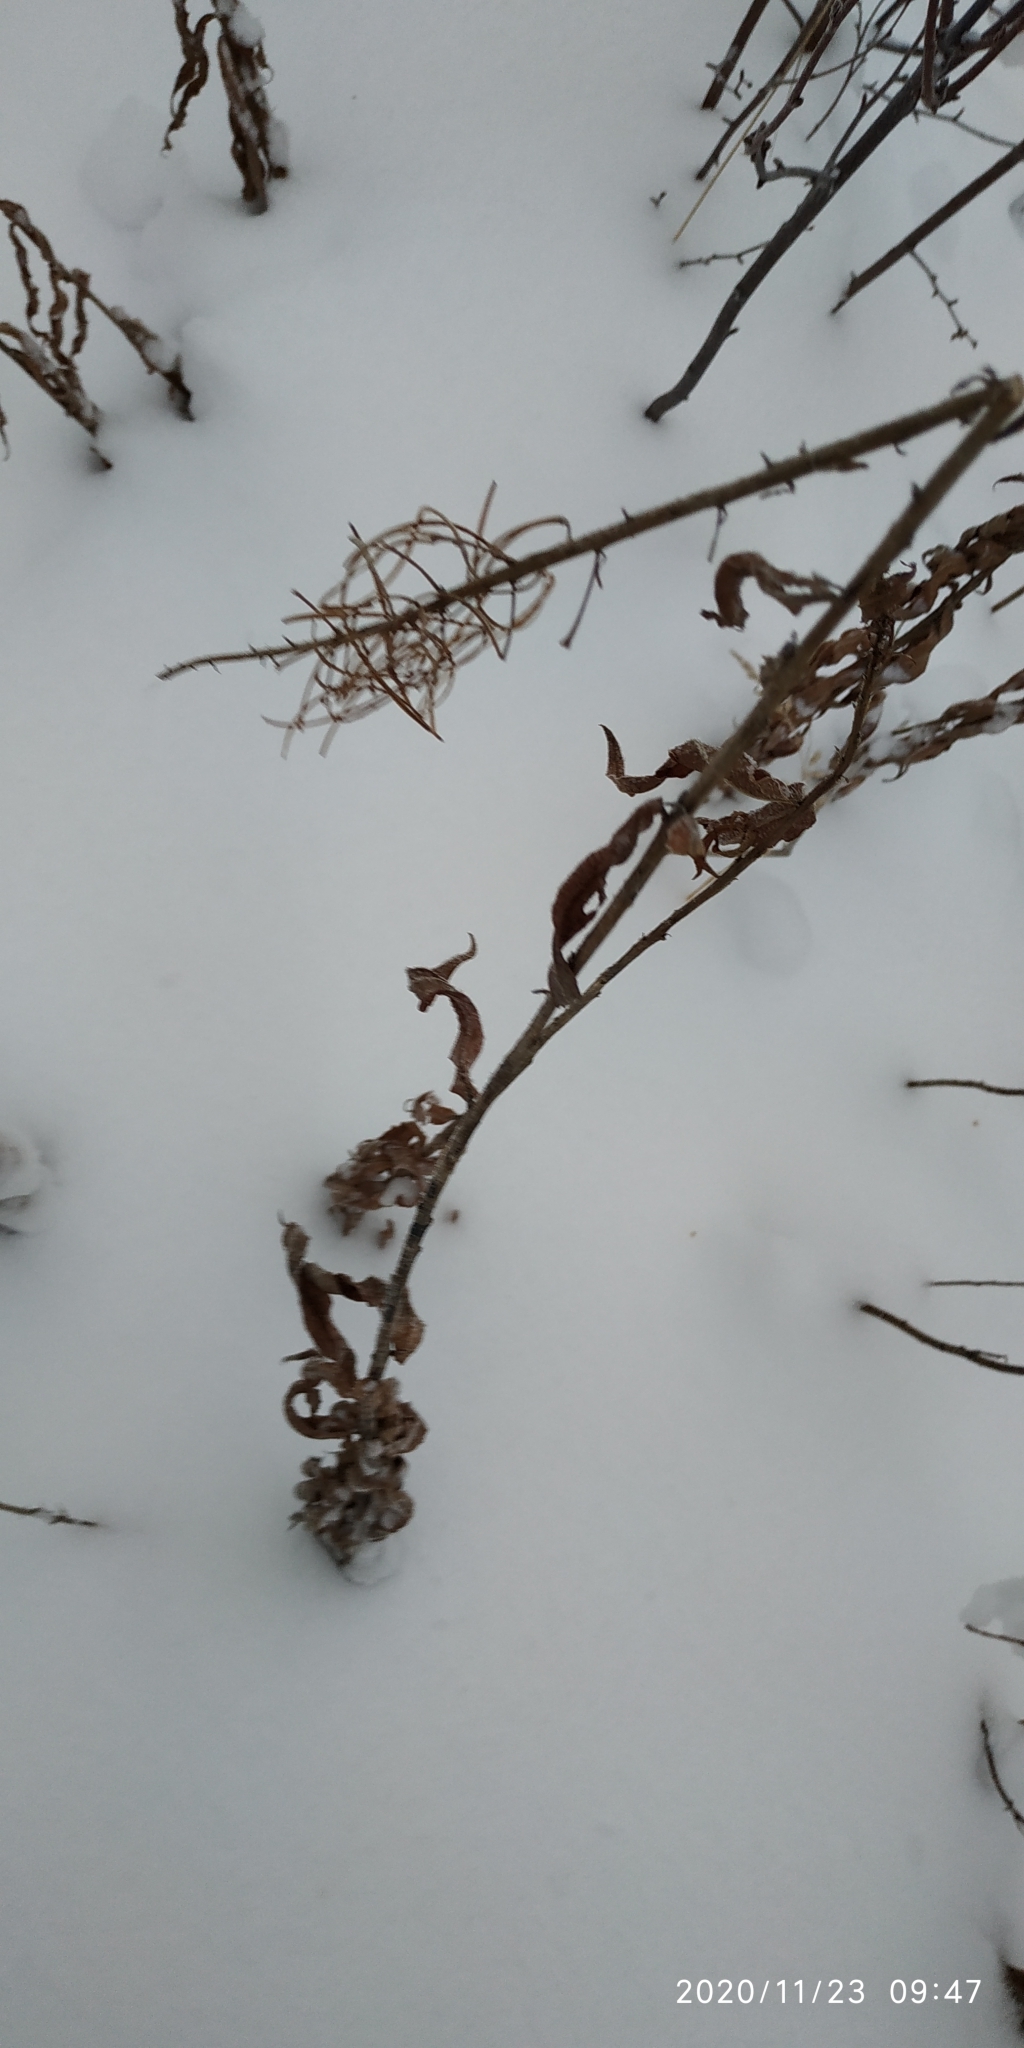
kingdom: Plantae
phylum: Tracheophyta
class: Magnoliopsida
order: Myrtales
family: Onagraceae
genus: Chamaenerion
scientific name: Chamaenerion angustifolium
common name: Fireweed
